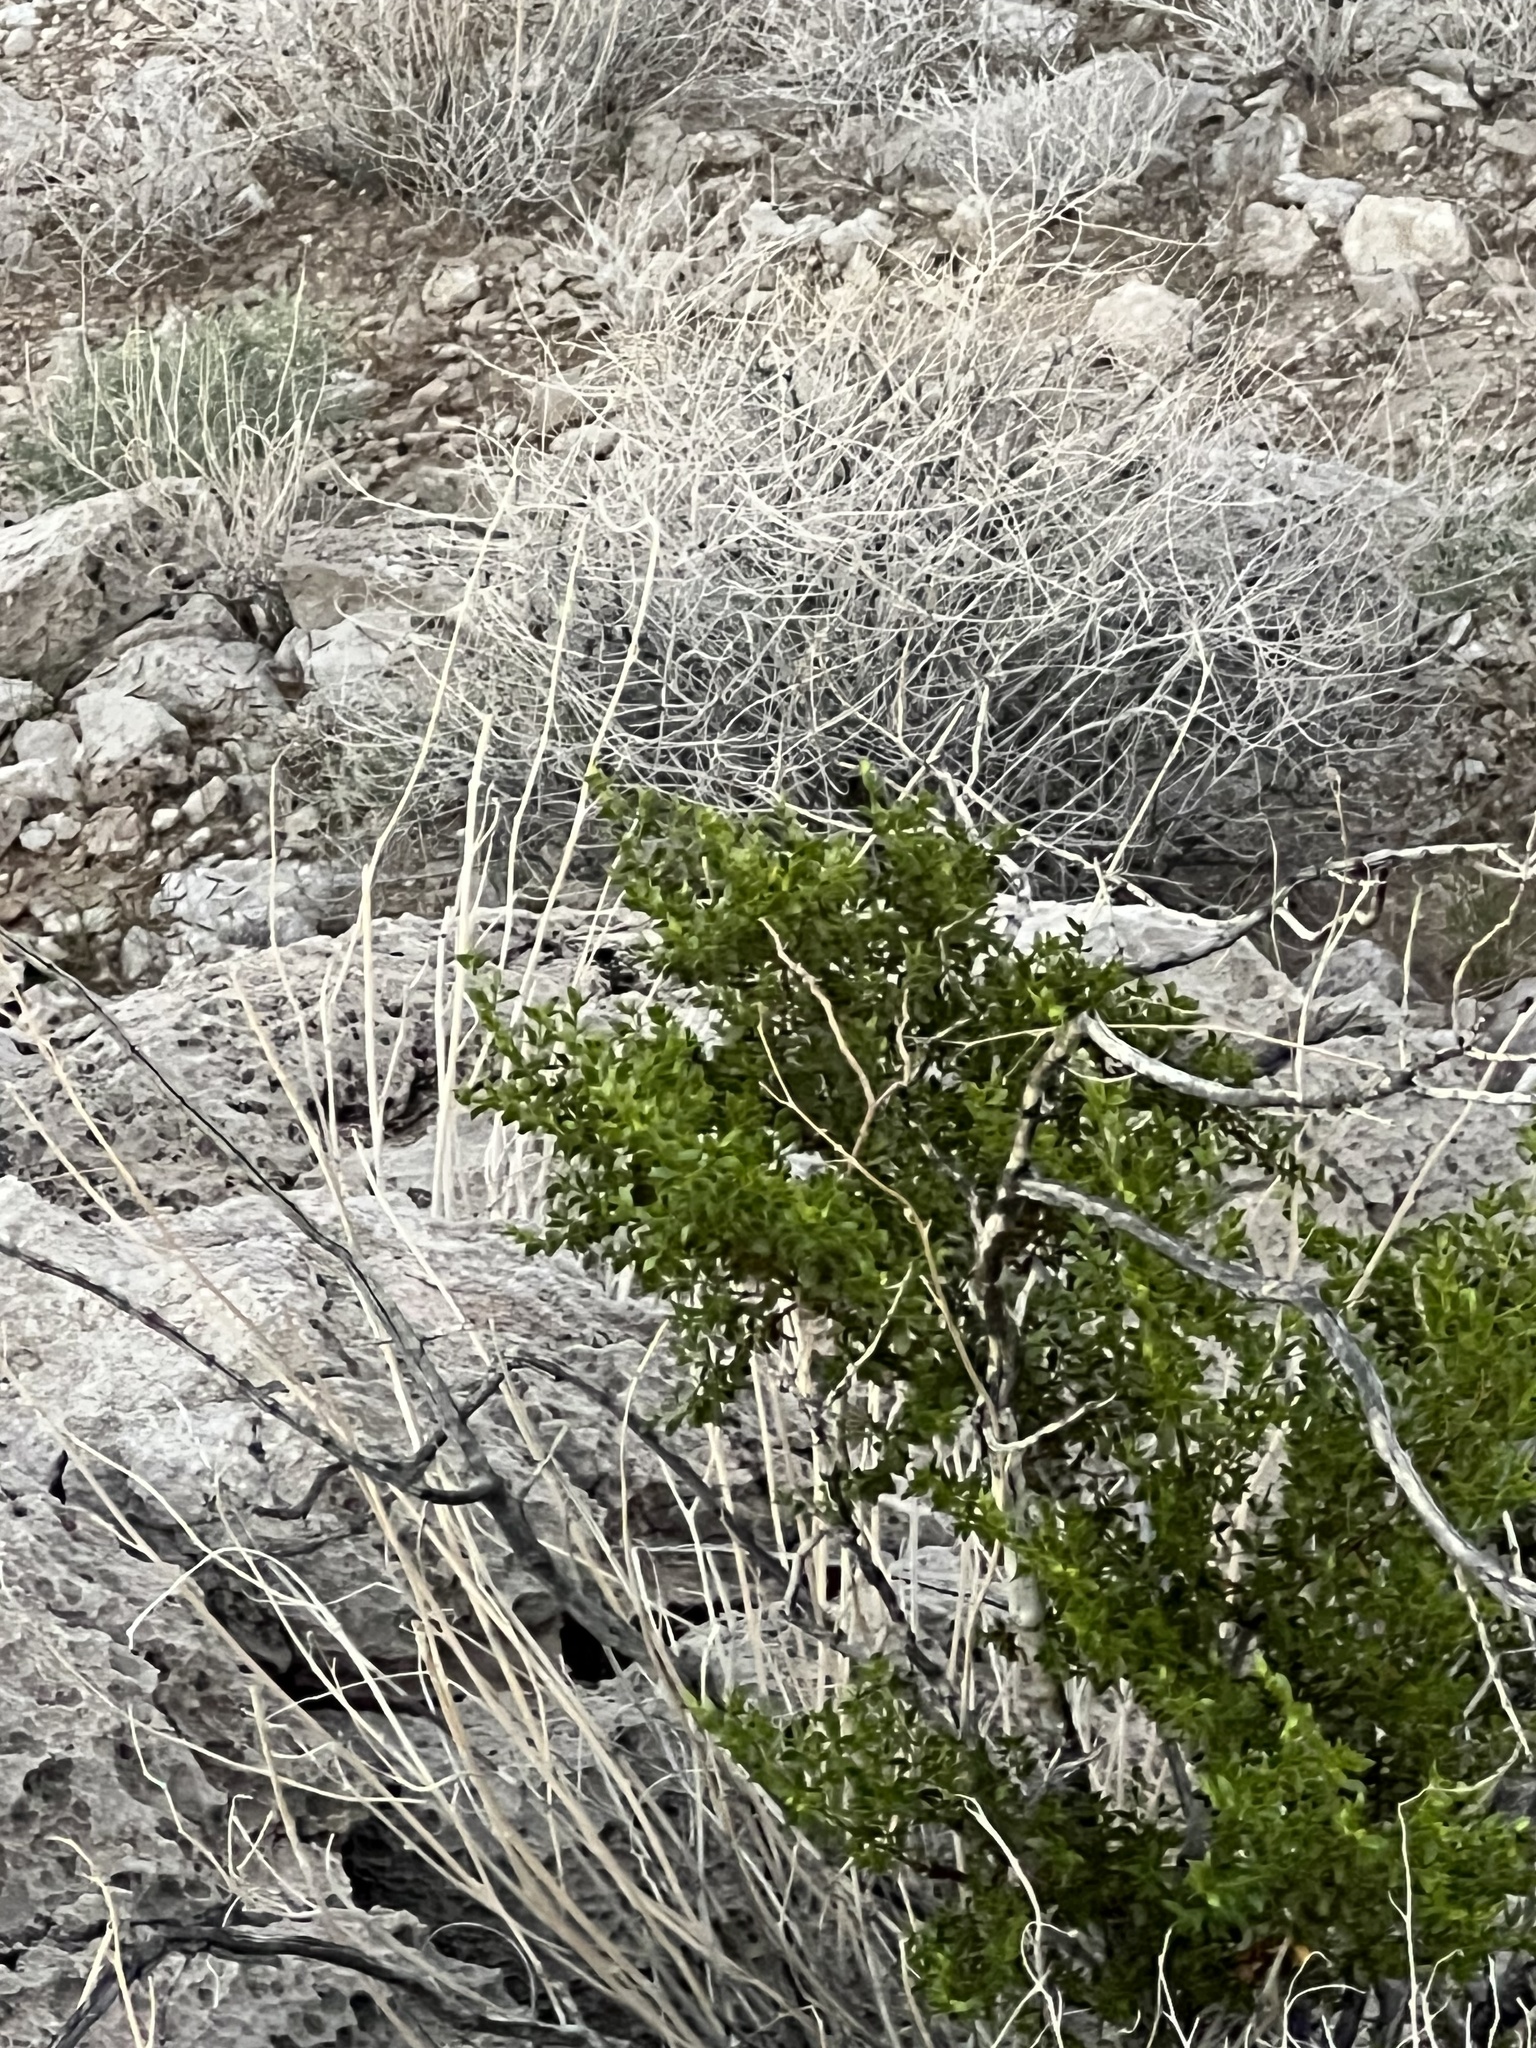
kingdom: Plantae
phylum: Tracheophyta
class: Magnoliopsida
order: Zygophyllales
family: Zygophyllaceae
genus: Larrea
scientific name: Larrea tridentata
